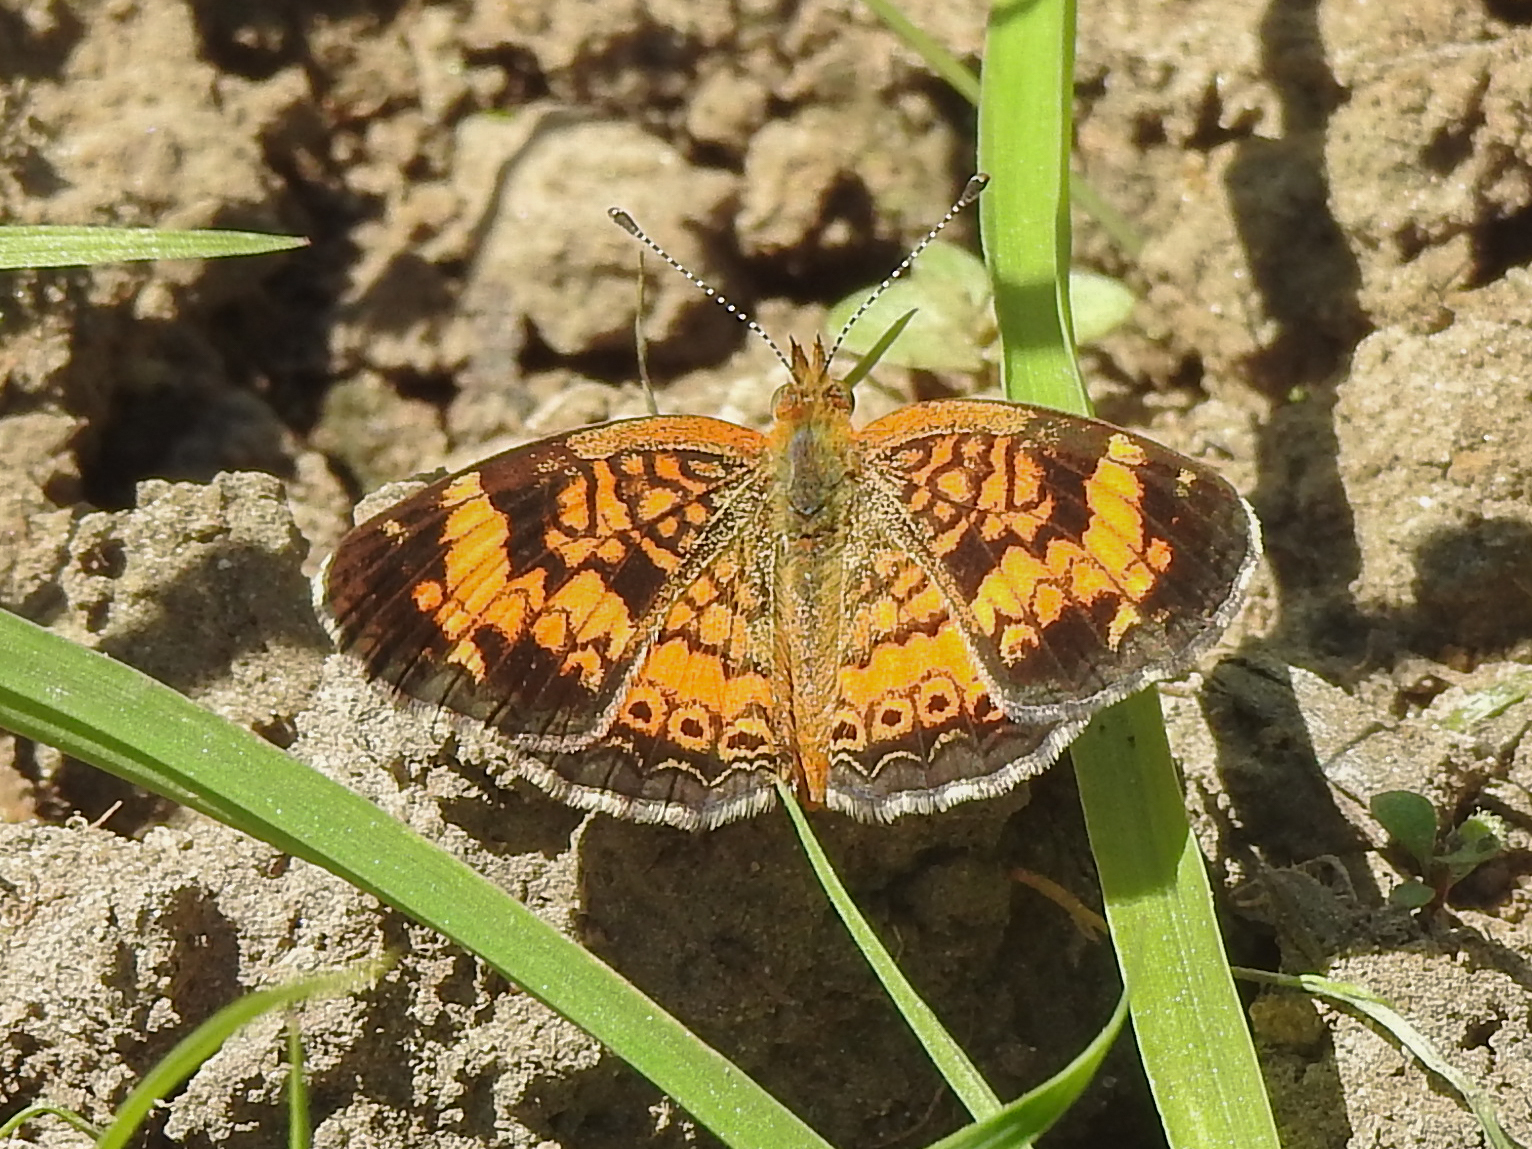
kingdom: Animalia
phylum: Arthropoda
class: Insecta
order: Lepidoptera
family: Nymphalidae
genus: Phyciodes
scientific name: Phyciodes tharos
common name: Pearl crescent
